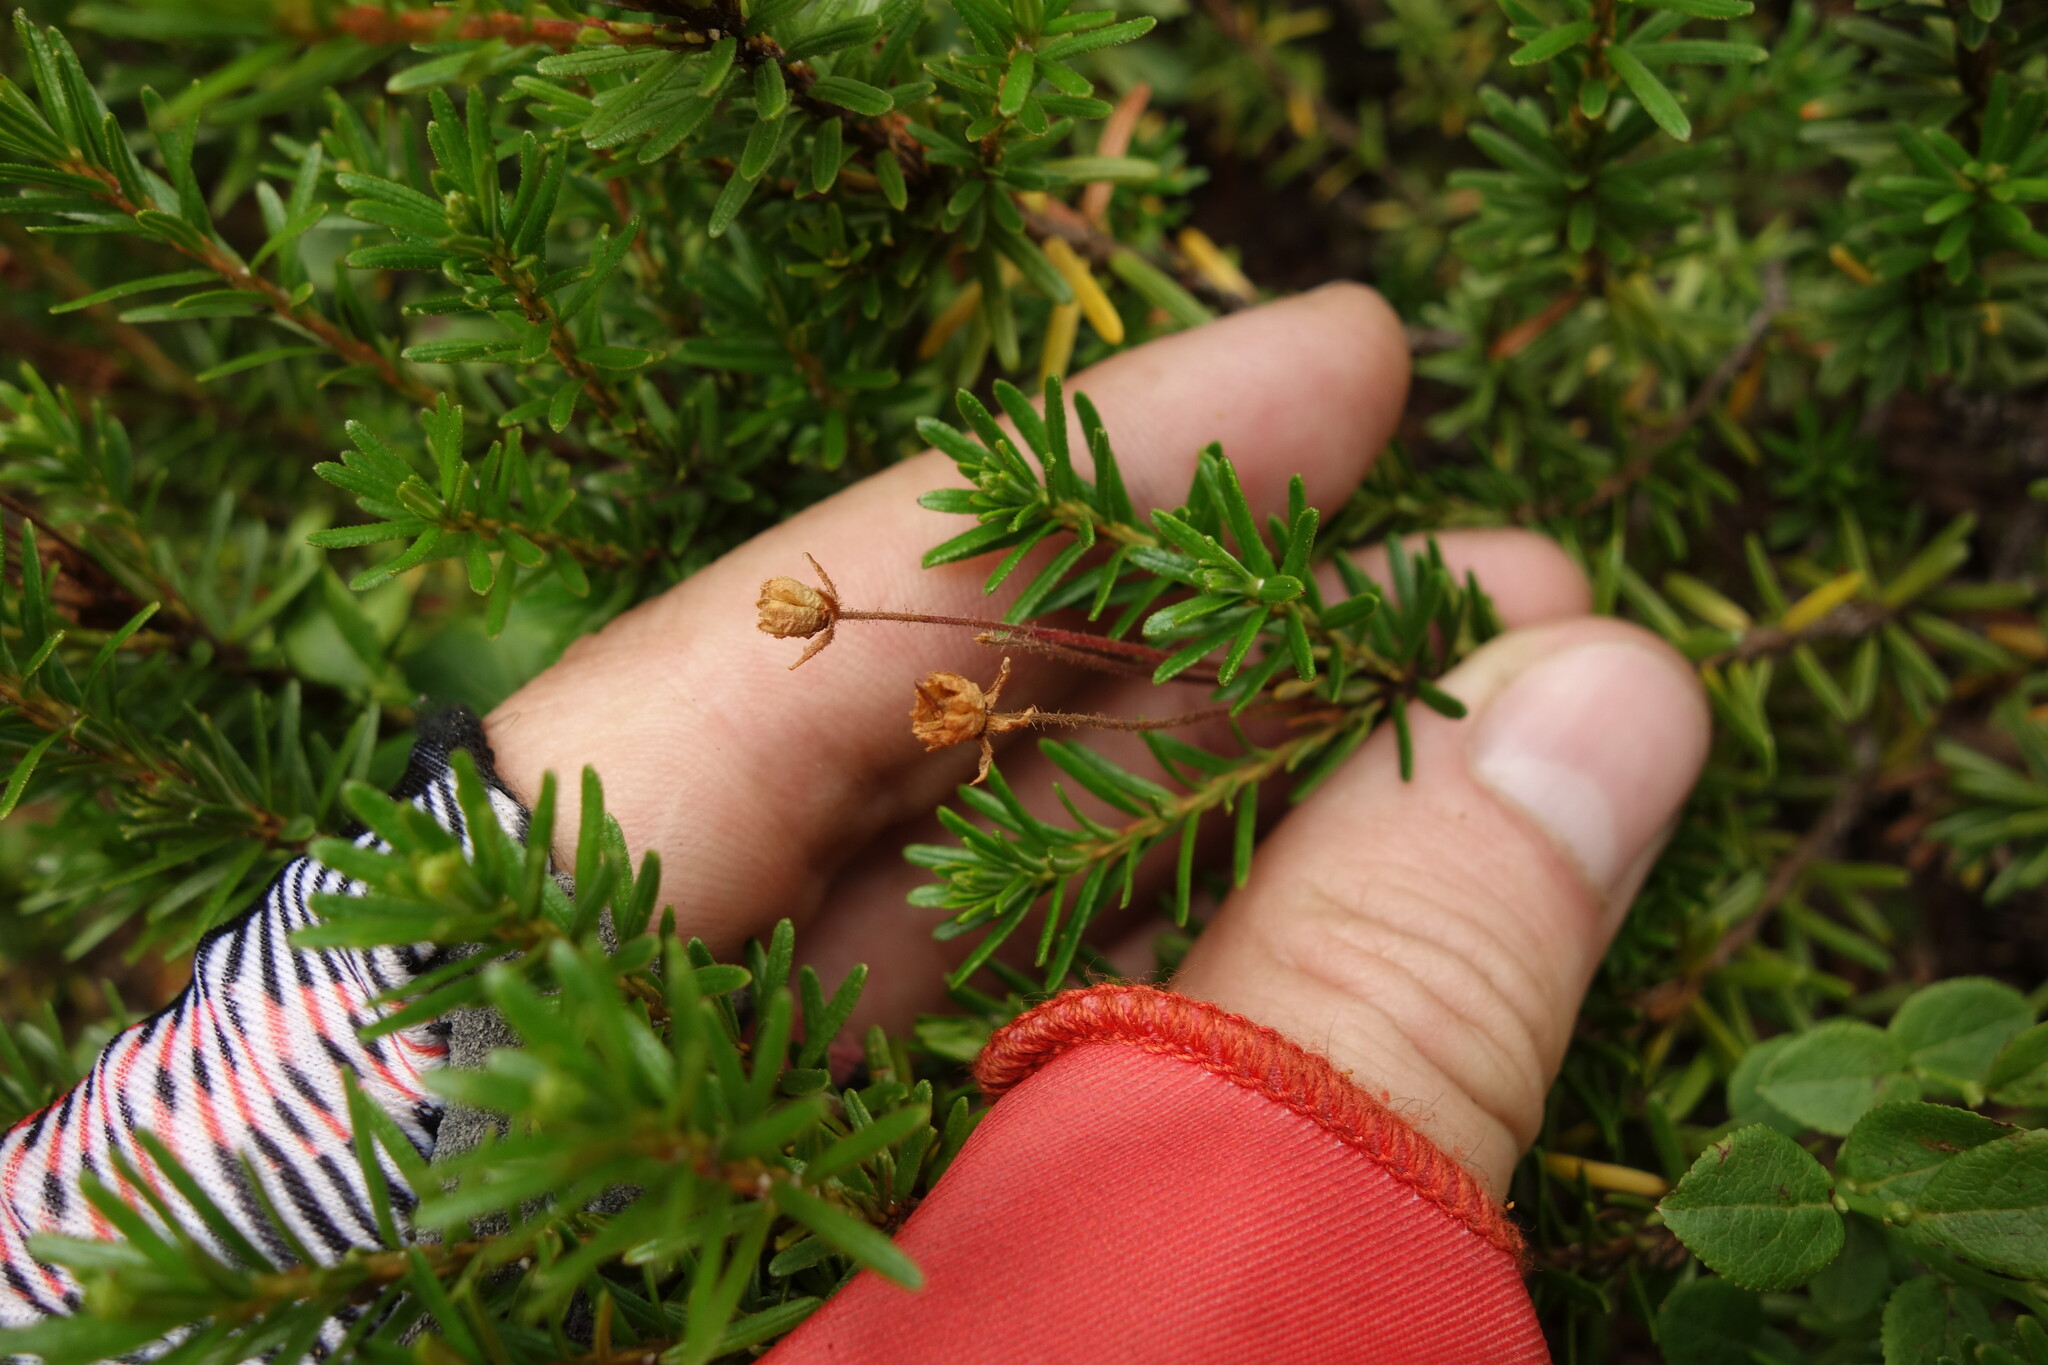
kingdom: Plantae
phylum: Tracheophyta
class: Magnoliopsida
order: Ericales
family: Ericaceae
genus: Phyllodoce
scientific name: Phyllodoce caerulea
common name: Blue heath
